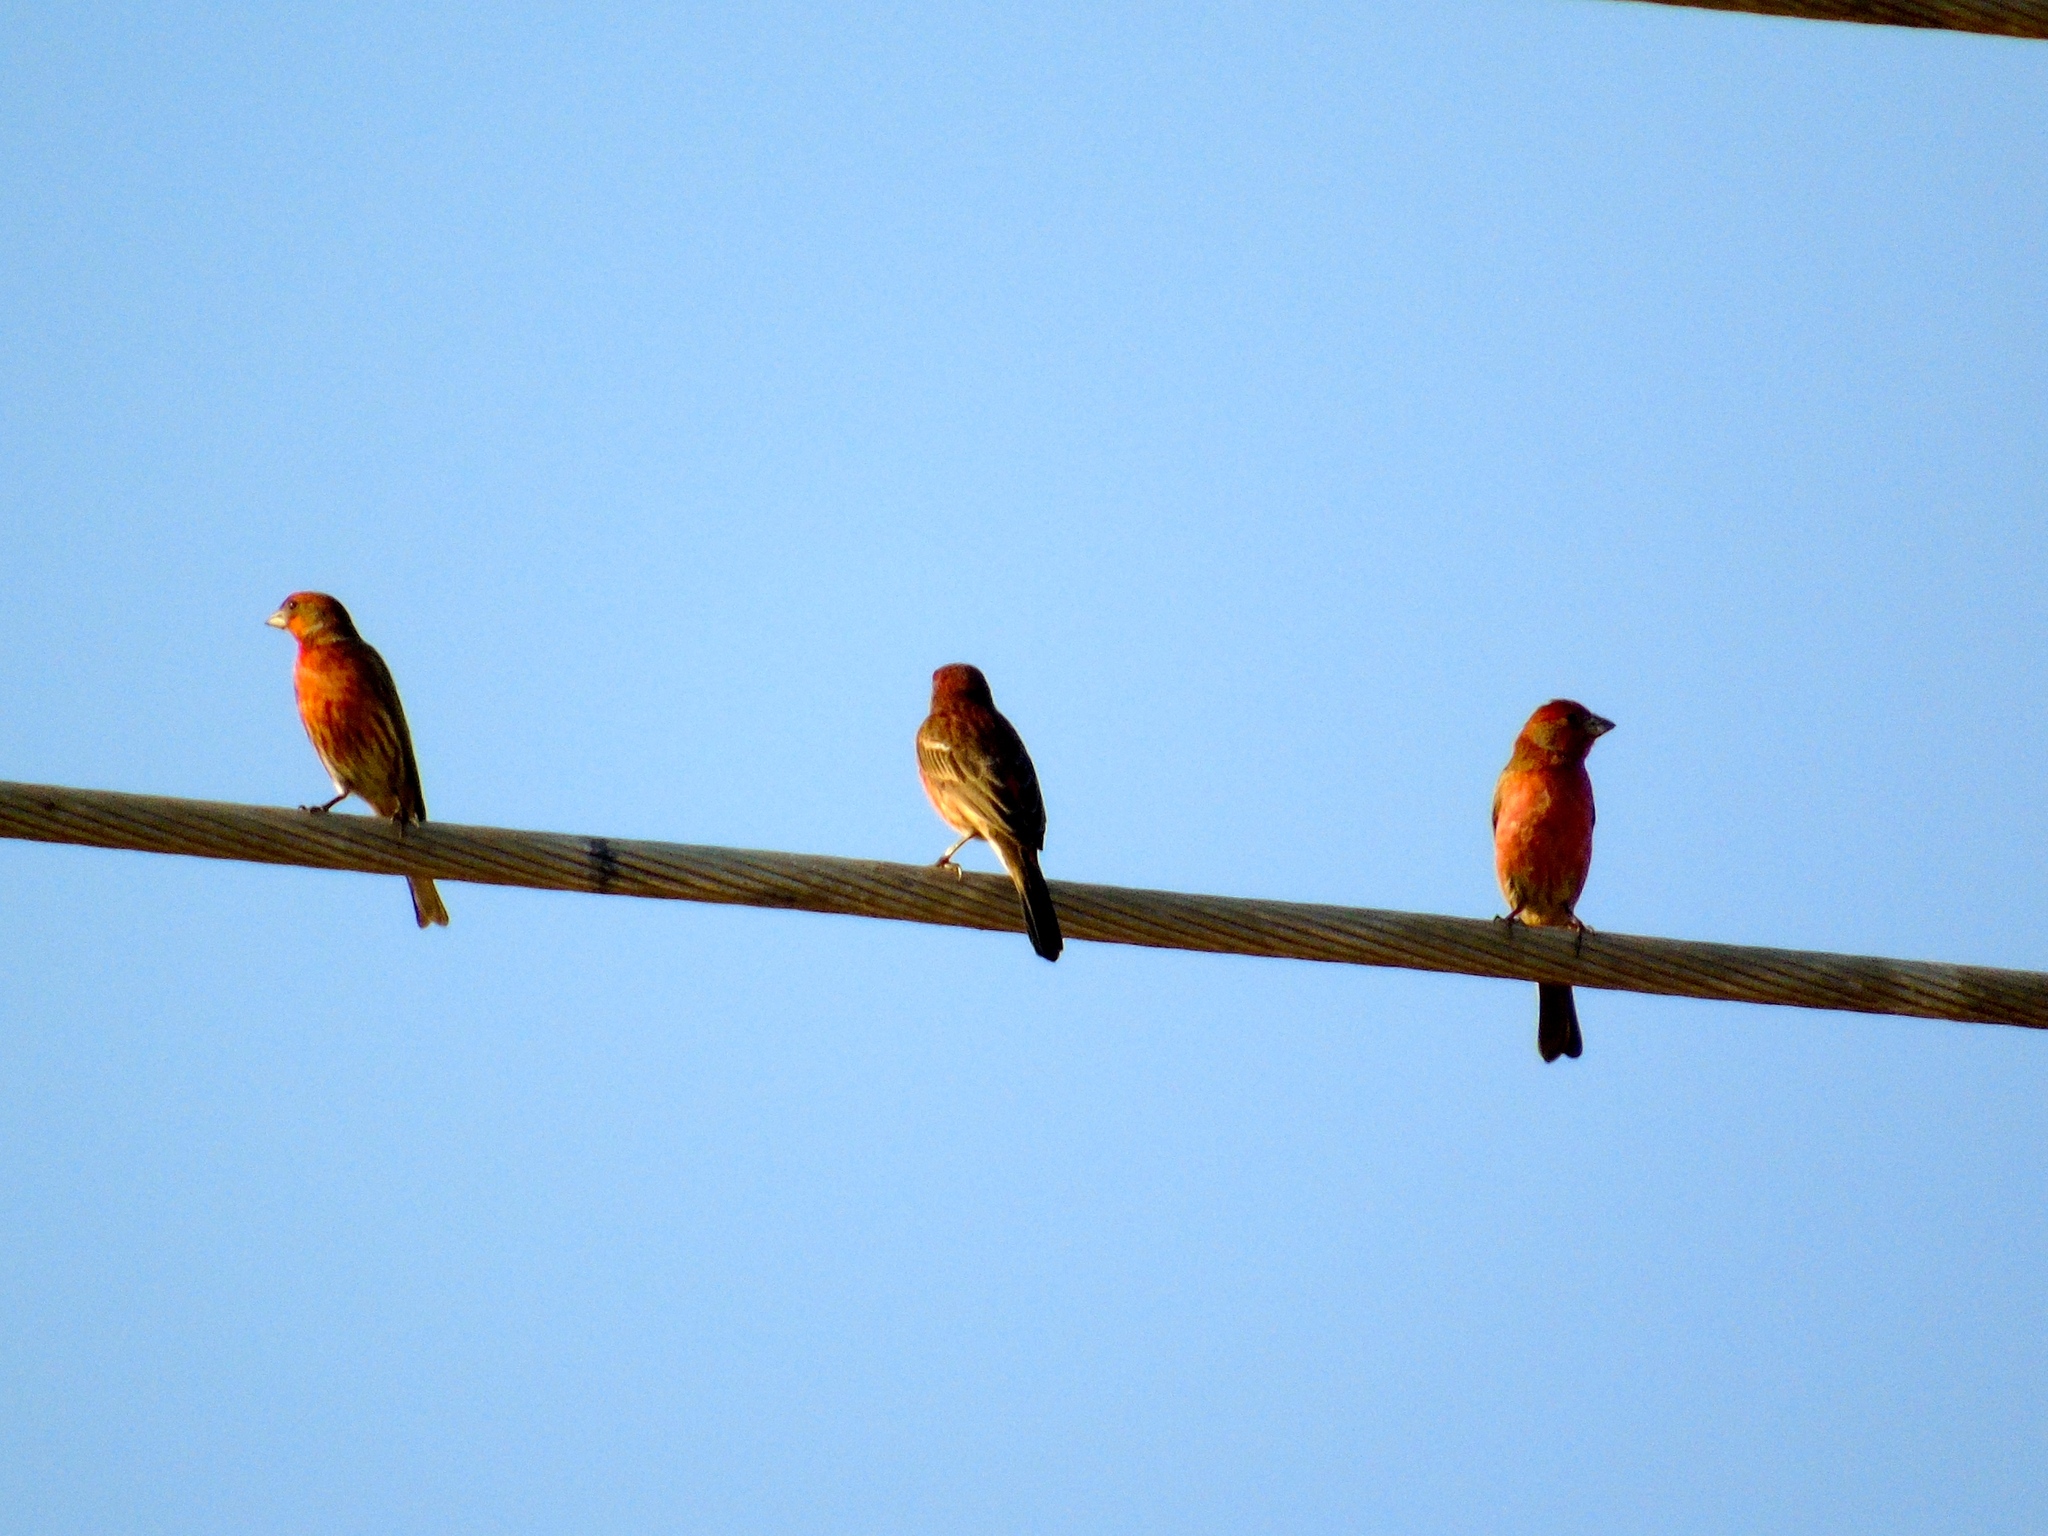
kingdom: Animalia
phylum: Chordata
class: Aves
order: Passeriformes
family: Fringillidae
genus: Haemorhous
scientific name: Haemorhous mexicanus
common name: House finch
